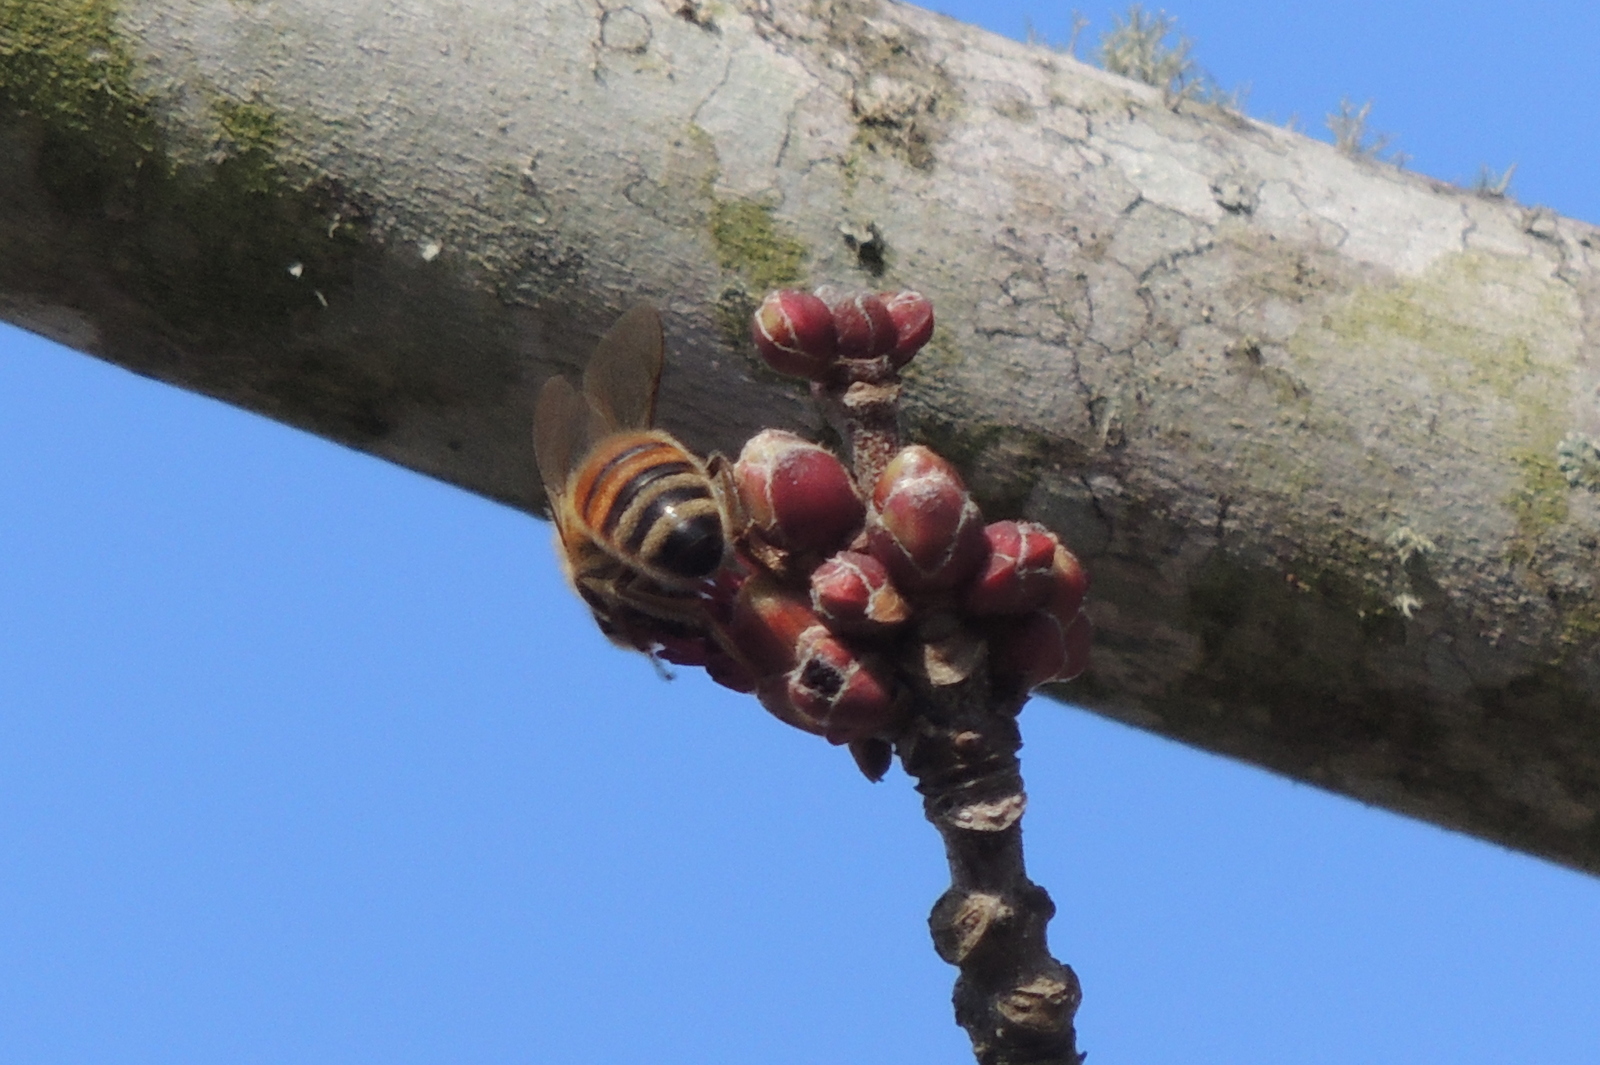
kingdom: Animalia
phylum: Arthropoda
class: Insecta
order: Hymenoptera
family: Apidae
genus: Apis
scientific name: Apis mellifera
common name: Honey bee
